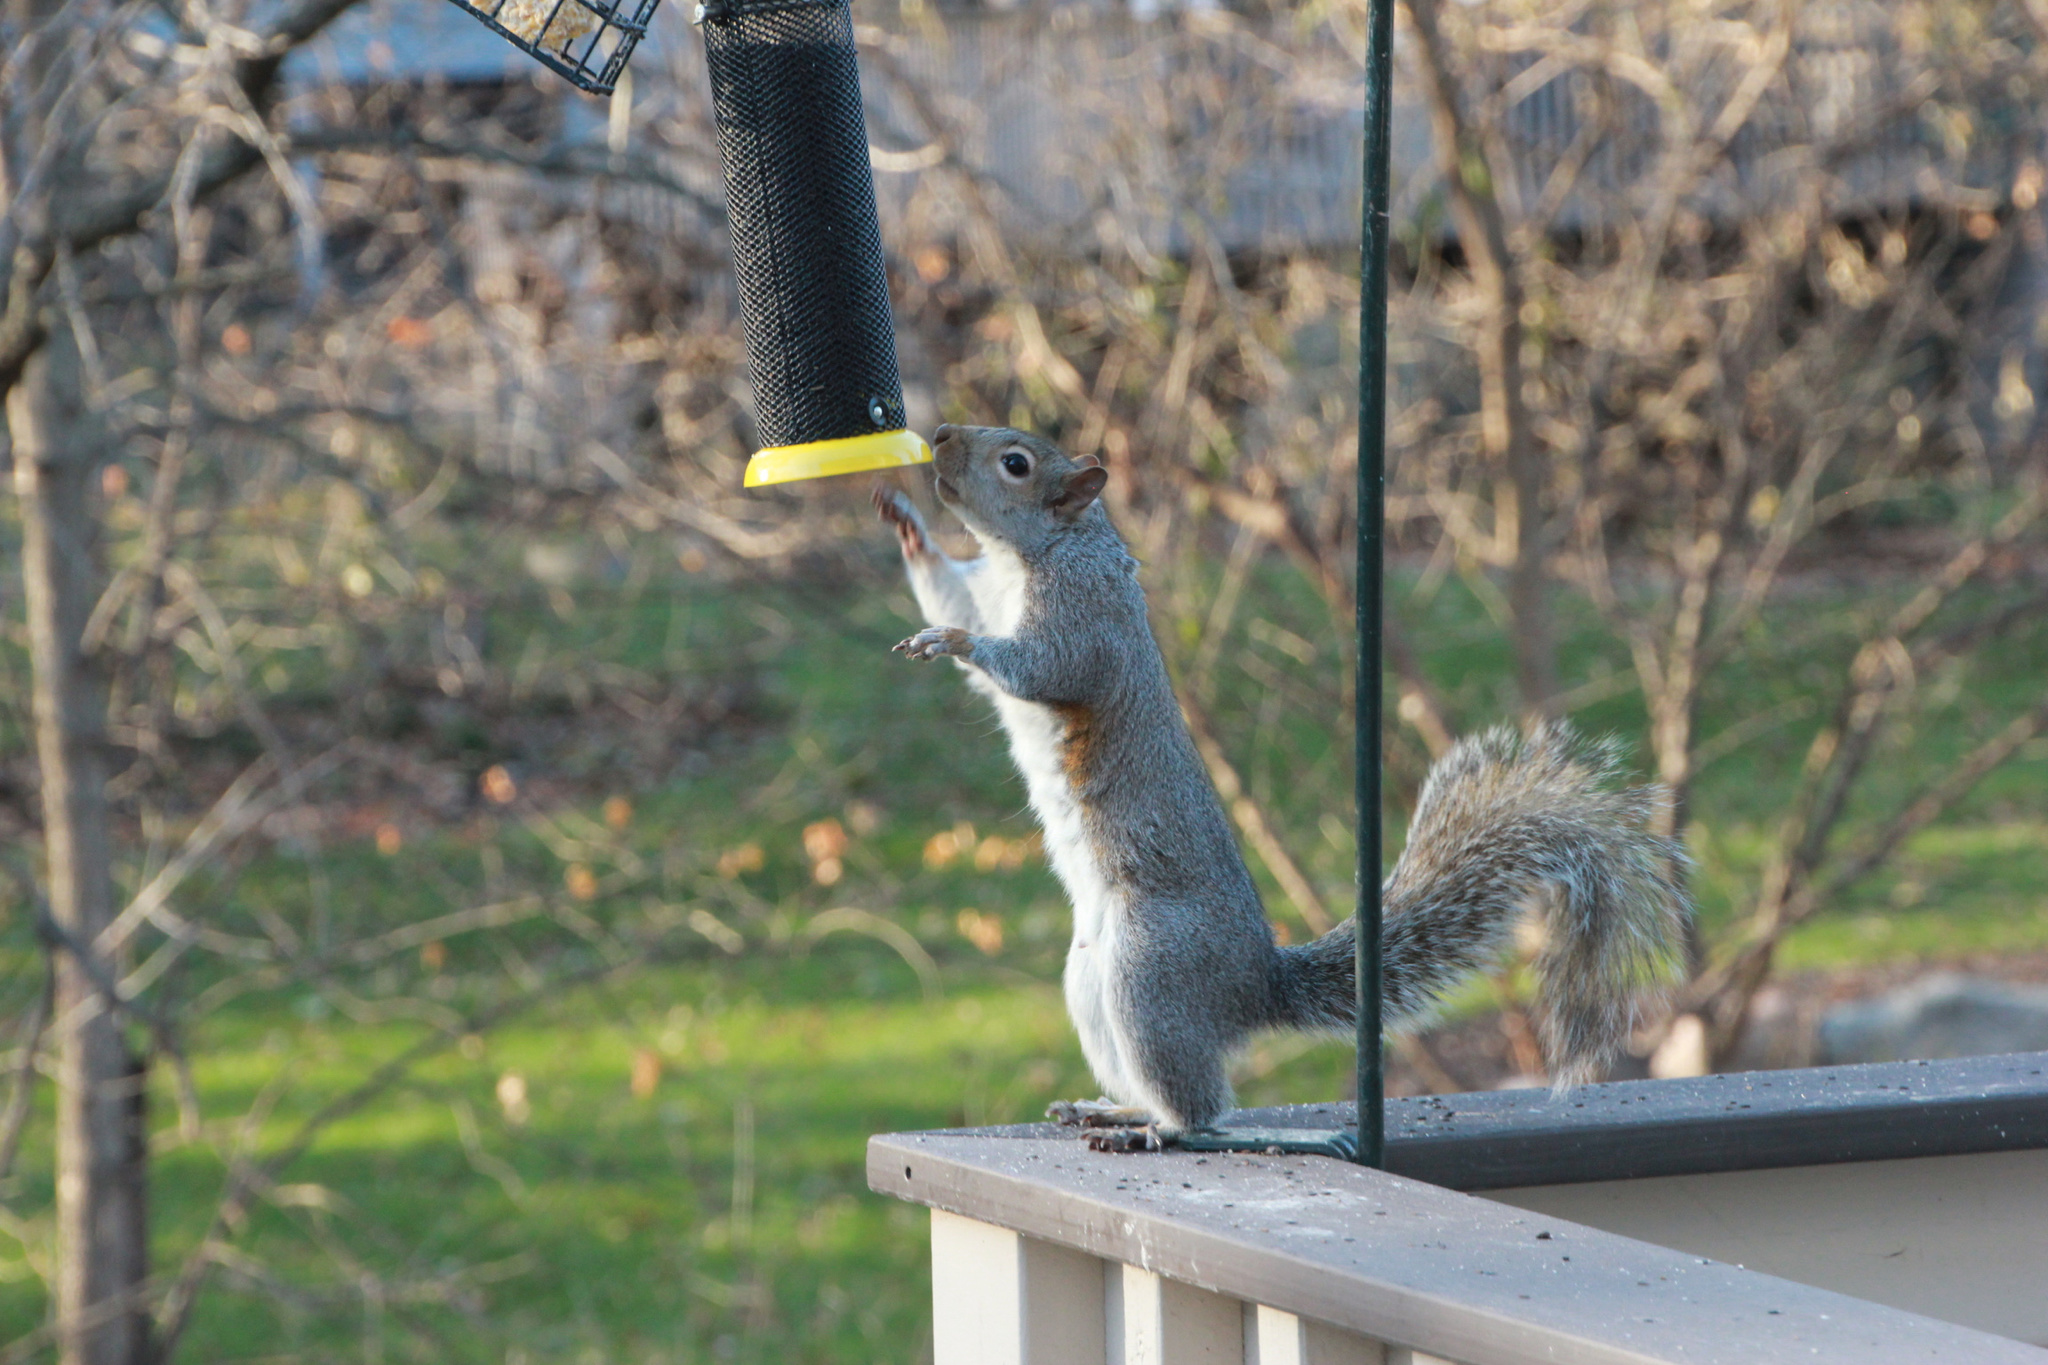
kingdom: Animalia
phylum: Chordata
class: Mammalia
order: Rodentia
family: Sciuridae
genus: Sciurus
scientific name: Sciurus carolinensis
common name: Eastern gray squirrel
